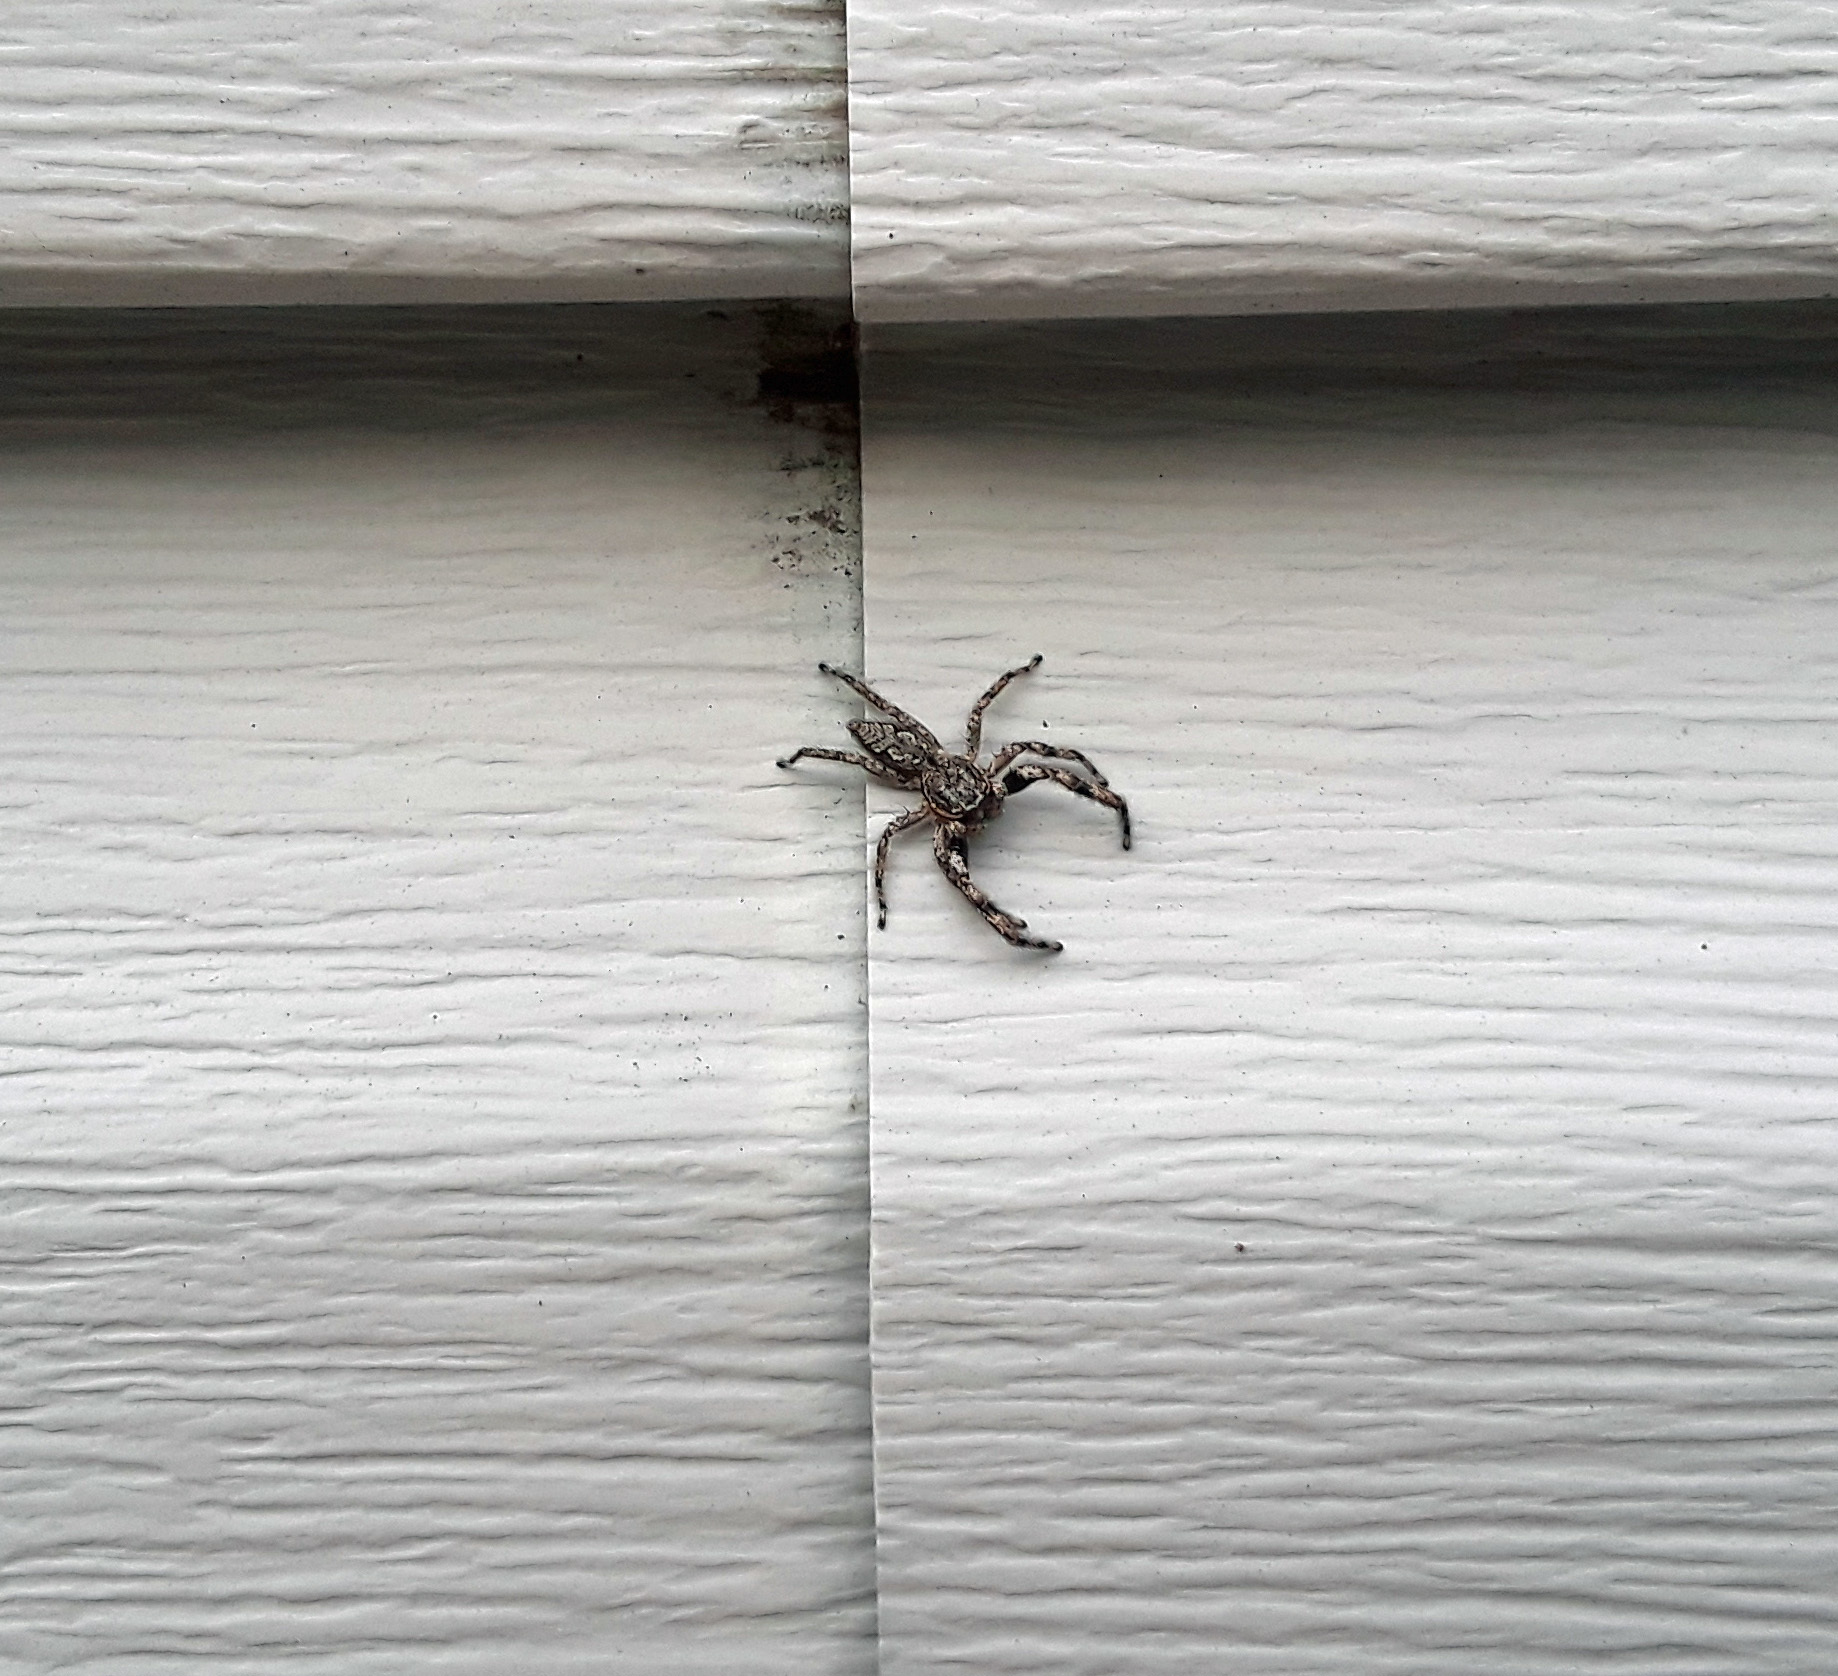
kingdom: Animalia
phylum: Arthropoda
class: Arachnida
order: Araneae
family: Salticidae
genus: Platycryptus
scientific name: Platycryptus undatus
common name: Tan jumping spider
